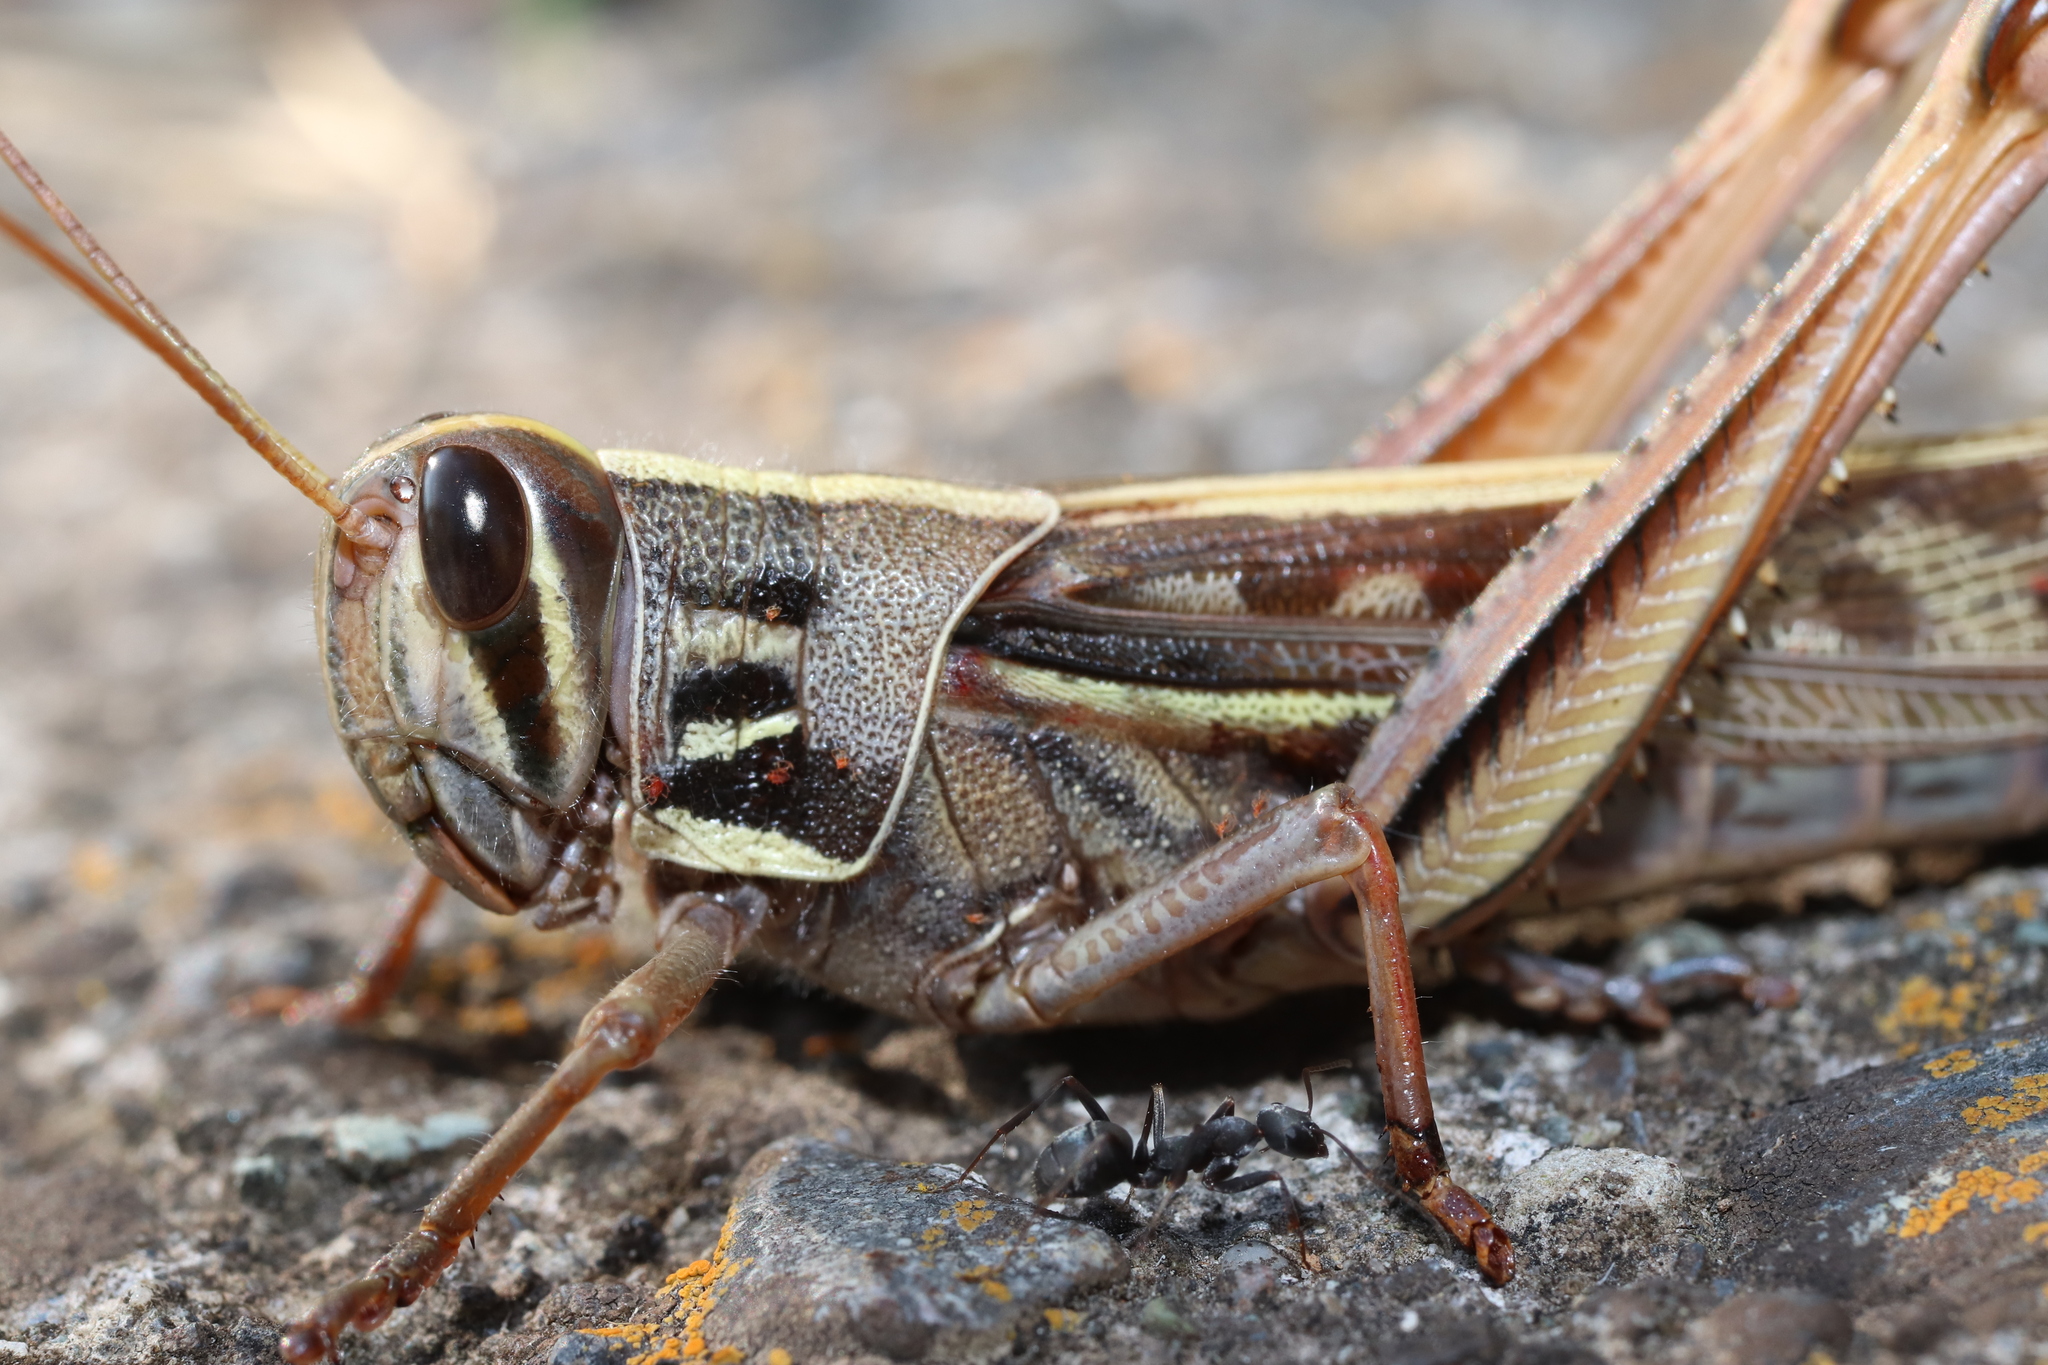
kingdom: Animalia
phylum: Arthropoda
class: Insecta
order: Orthoptera
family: Acrididae
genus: Patanga
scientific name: Patanga japonica
